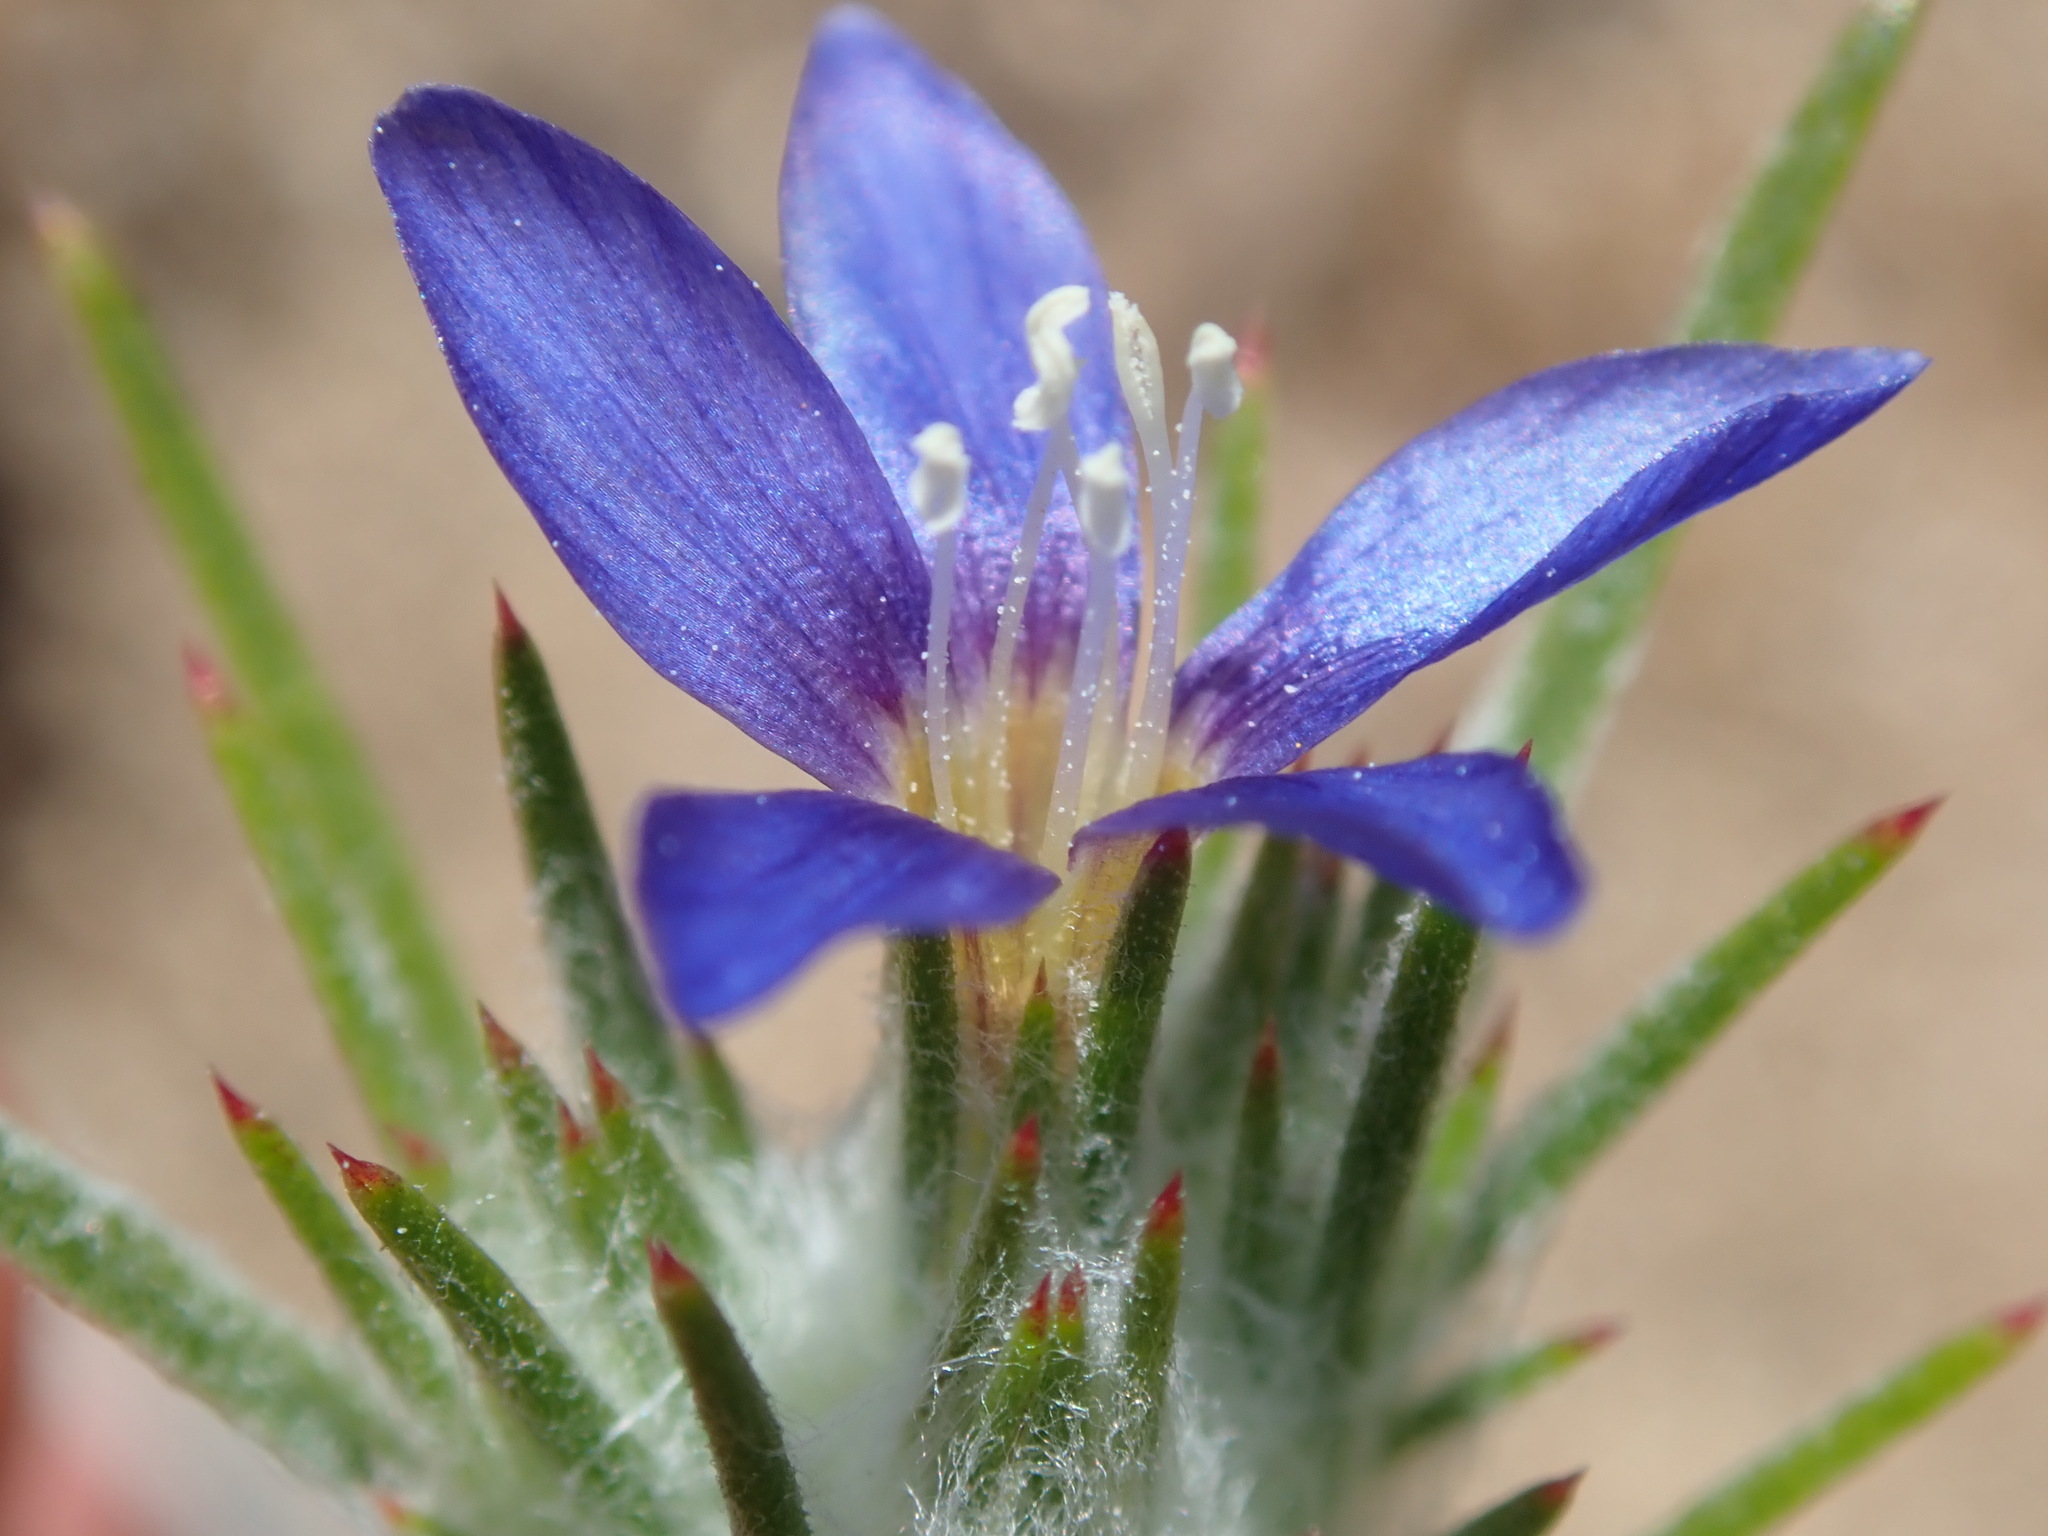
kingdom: Plantae
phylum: Tracheophyta
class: Magnoliopsida
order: Ericales
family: Polemoniaceae
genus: Eriastrum
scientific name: Eriastrum virgatum
